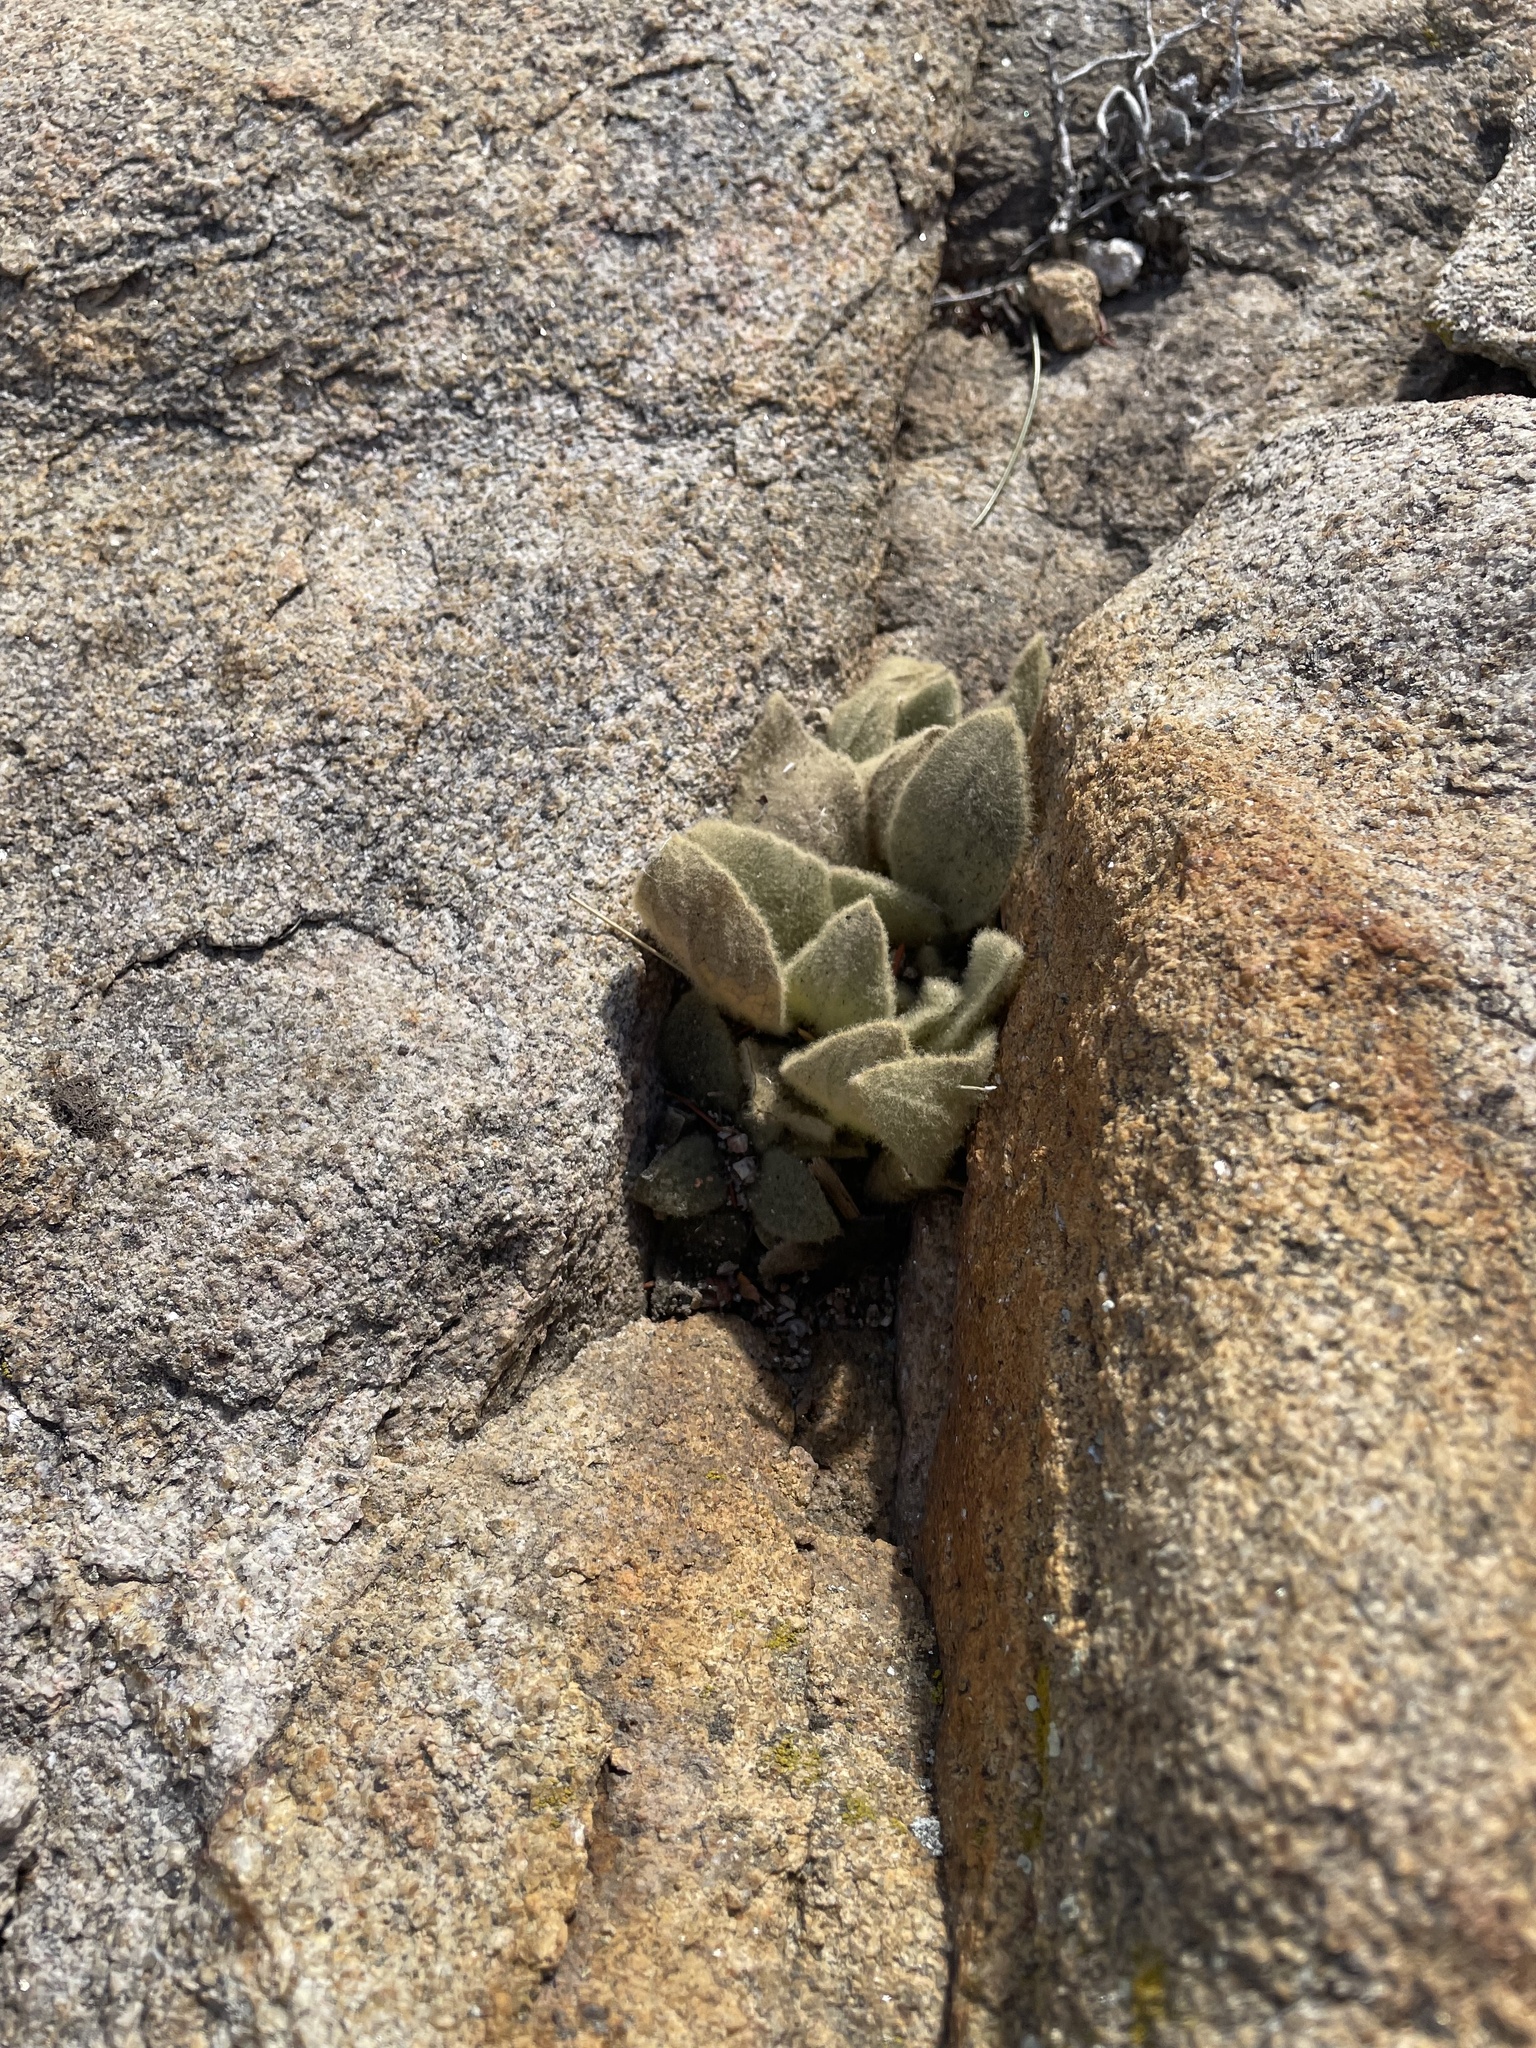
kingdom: Plantae
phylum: Tracheophyta
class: Magnoliopsida
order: Lamiales
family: Scrophulariaceae
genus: Verbascum
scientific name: Verbascum thapsus
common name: Common mullein
